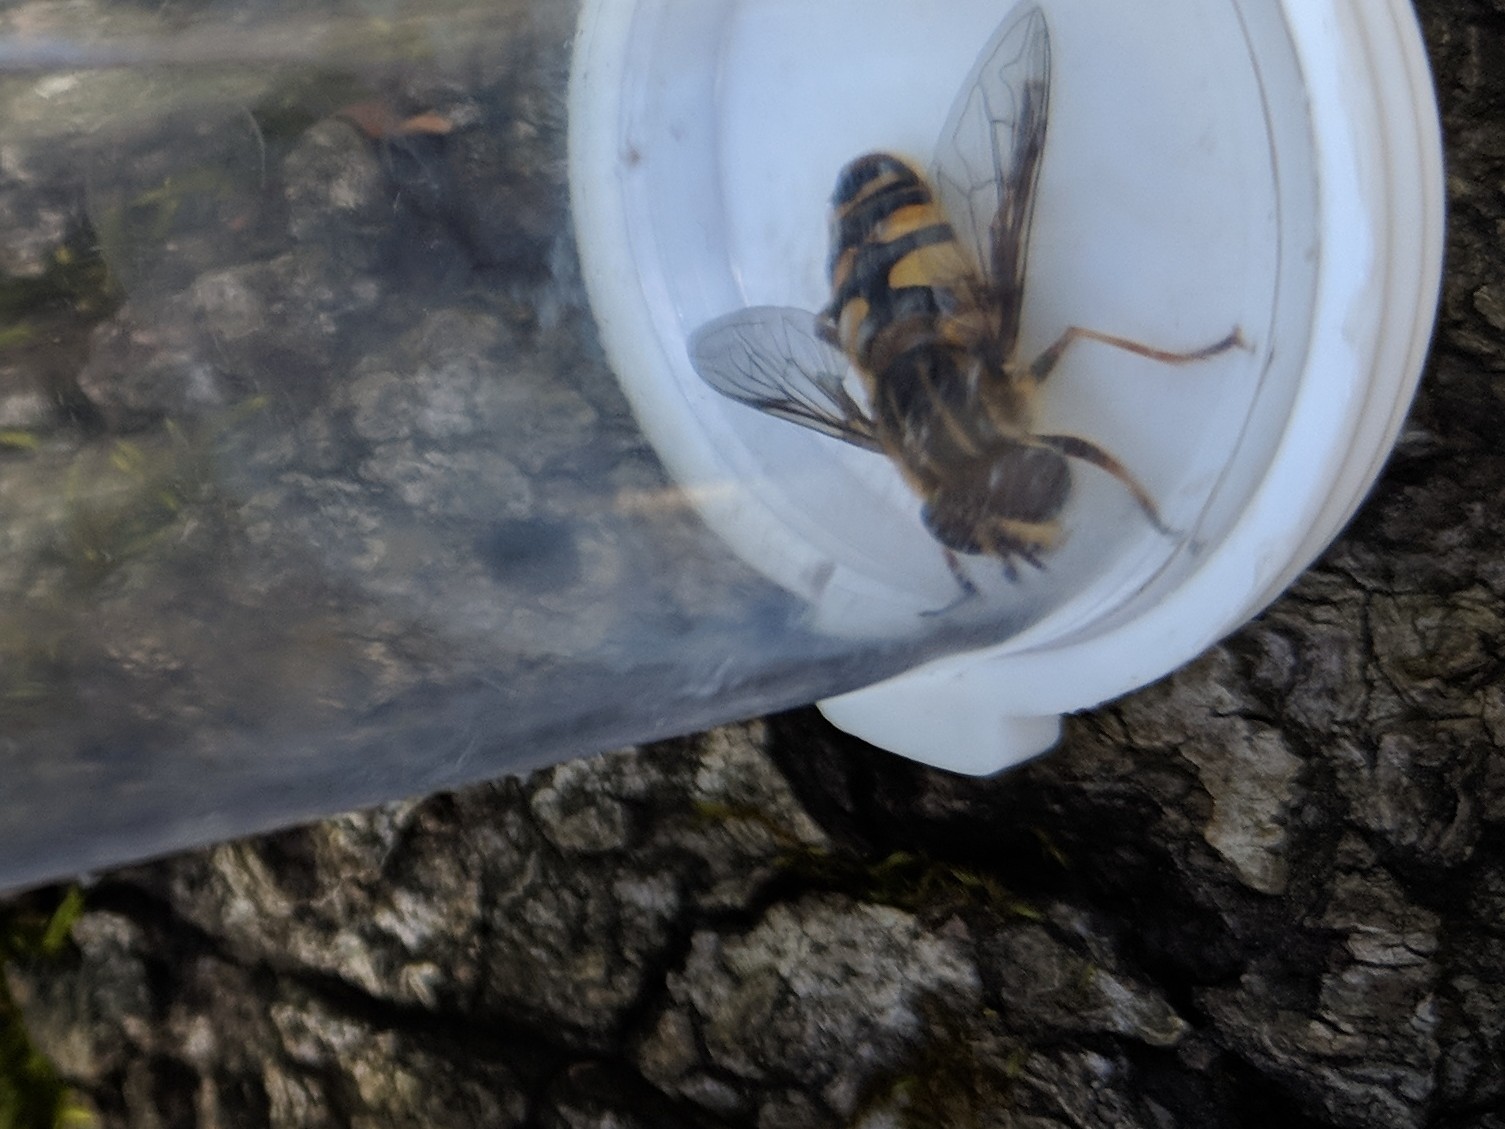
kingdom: Animalia
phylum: Arthropoda
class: Insecta
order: Diptera
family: Syrphidae
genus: Helophilus
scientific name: Helophilus fasciatus
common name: Narrow-headed marsh fly
